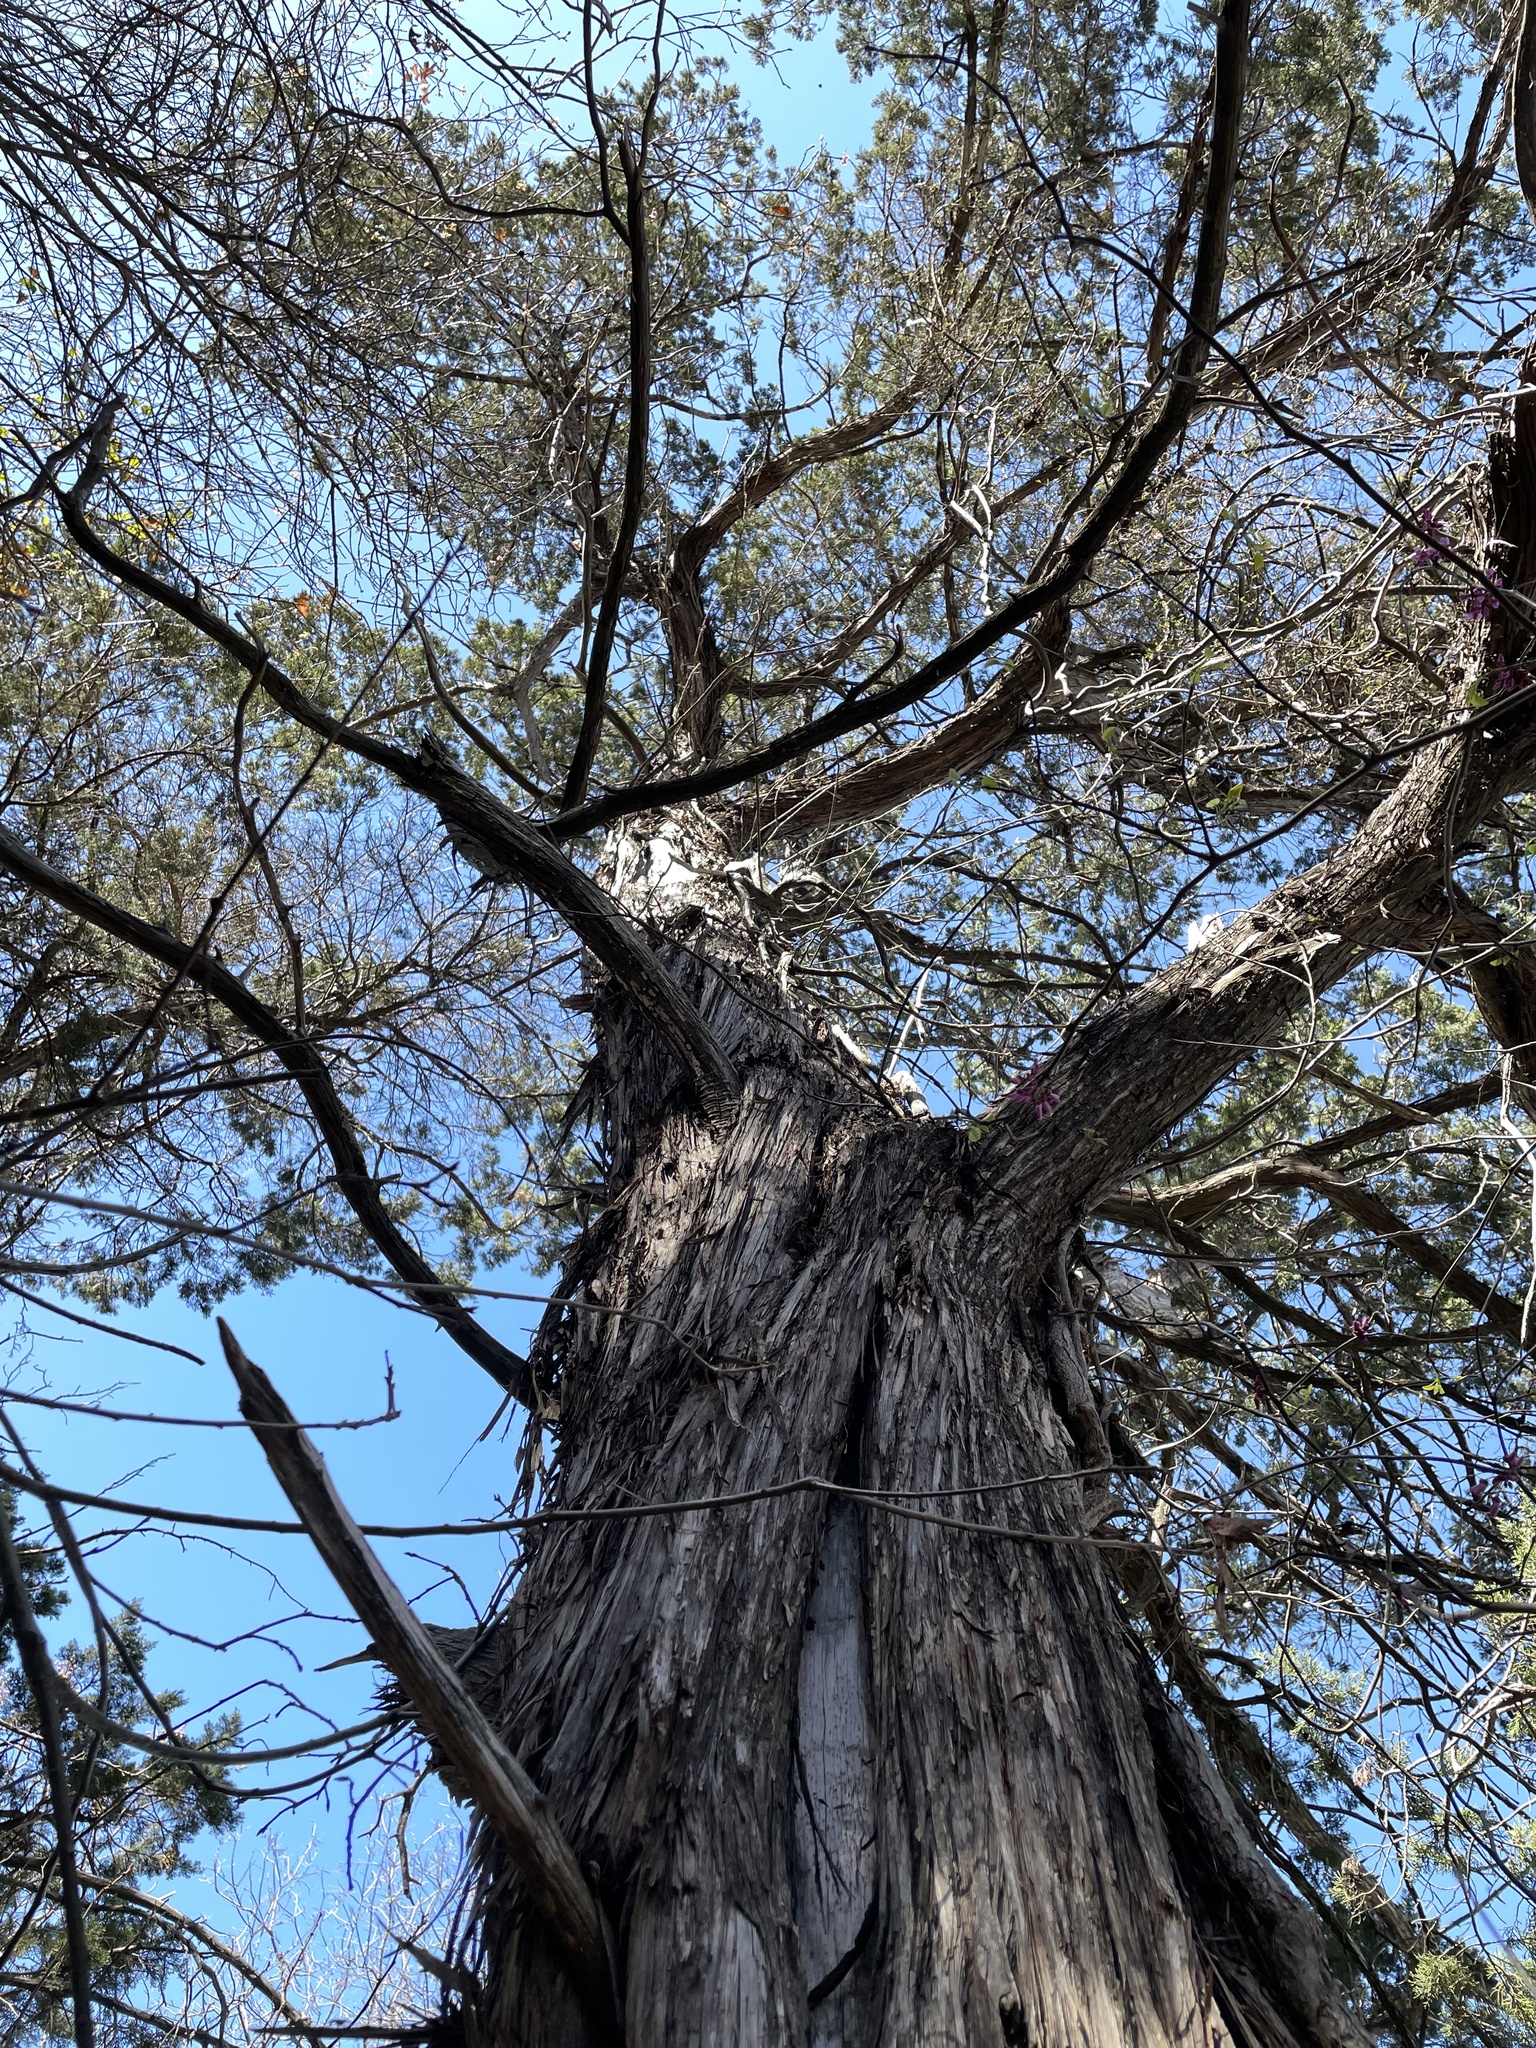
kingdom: Plantae
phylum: Tracheophyta
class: Pinopsida
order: Pinales
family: Cupressaceae
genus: Juniperus
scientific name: Juniperus ashei
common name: Mexican juniper
